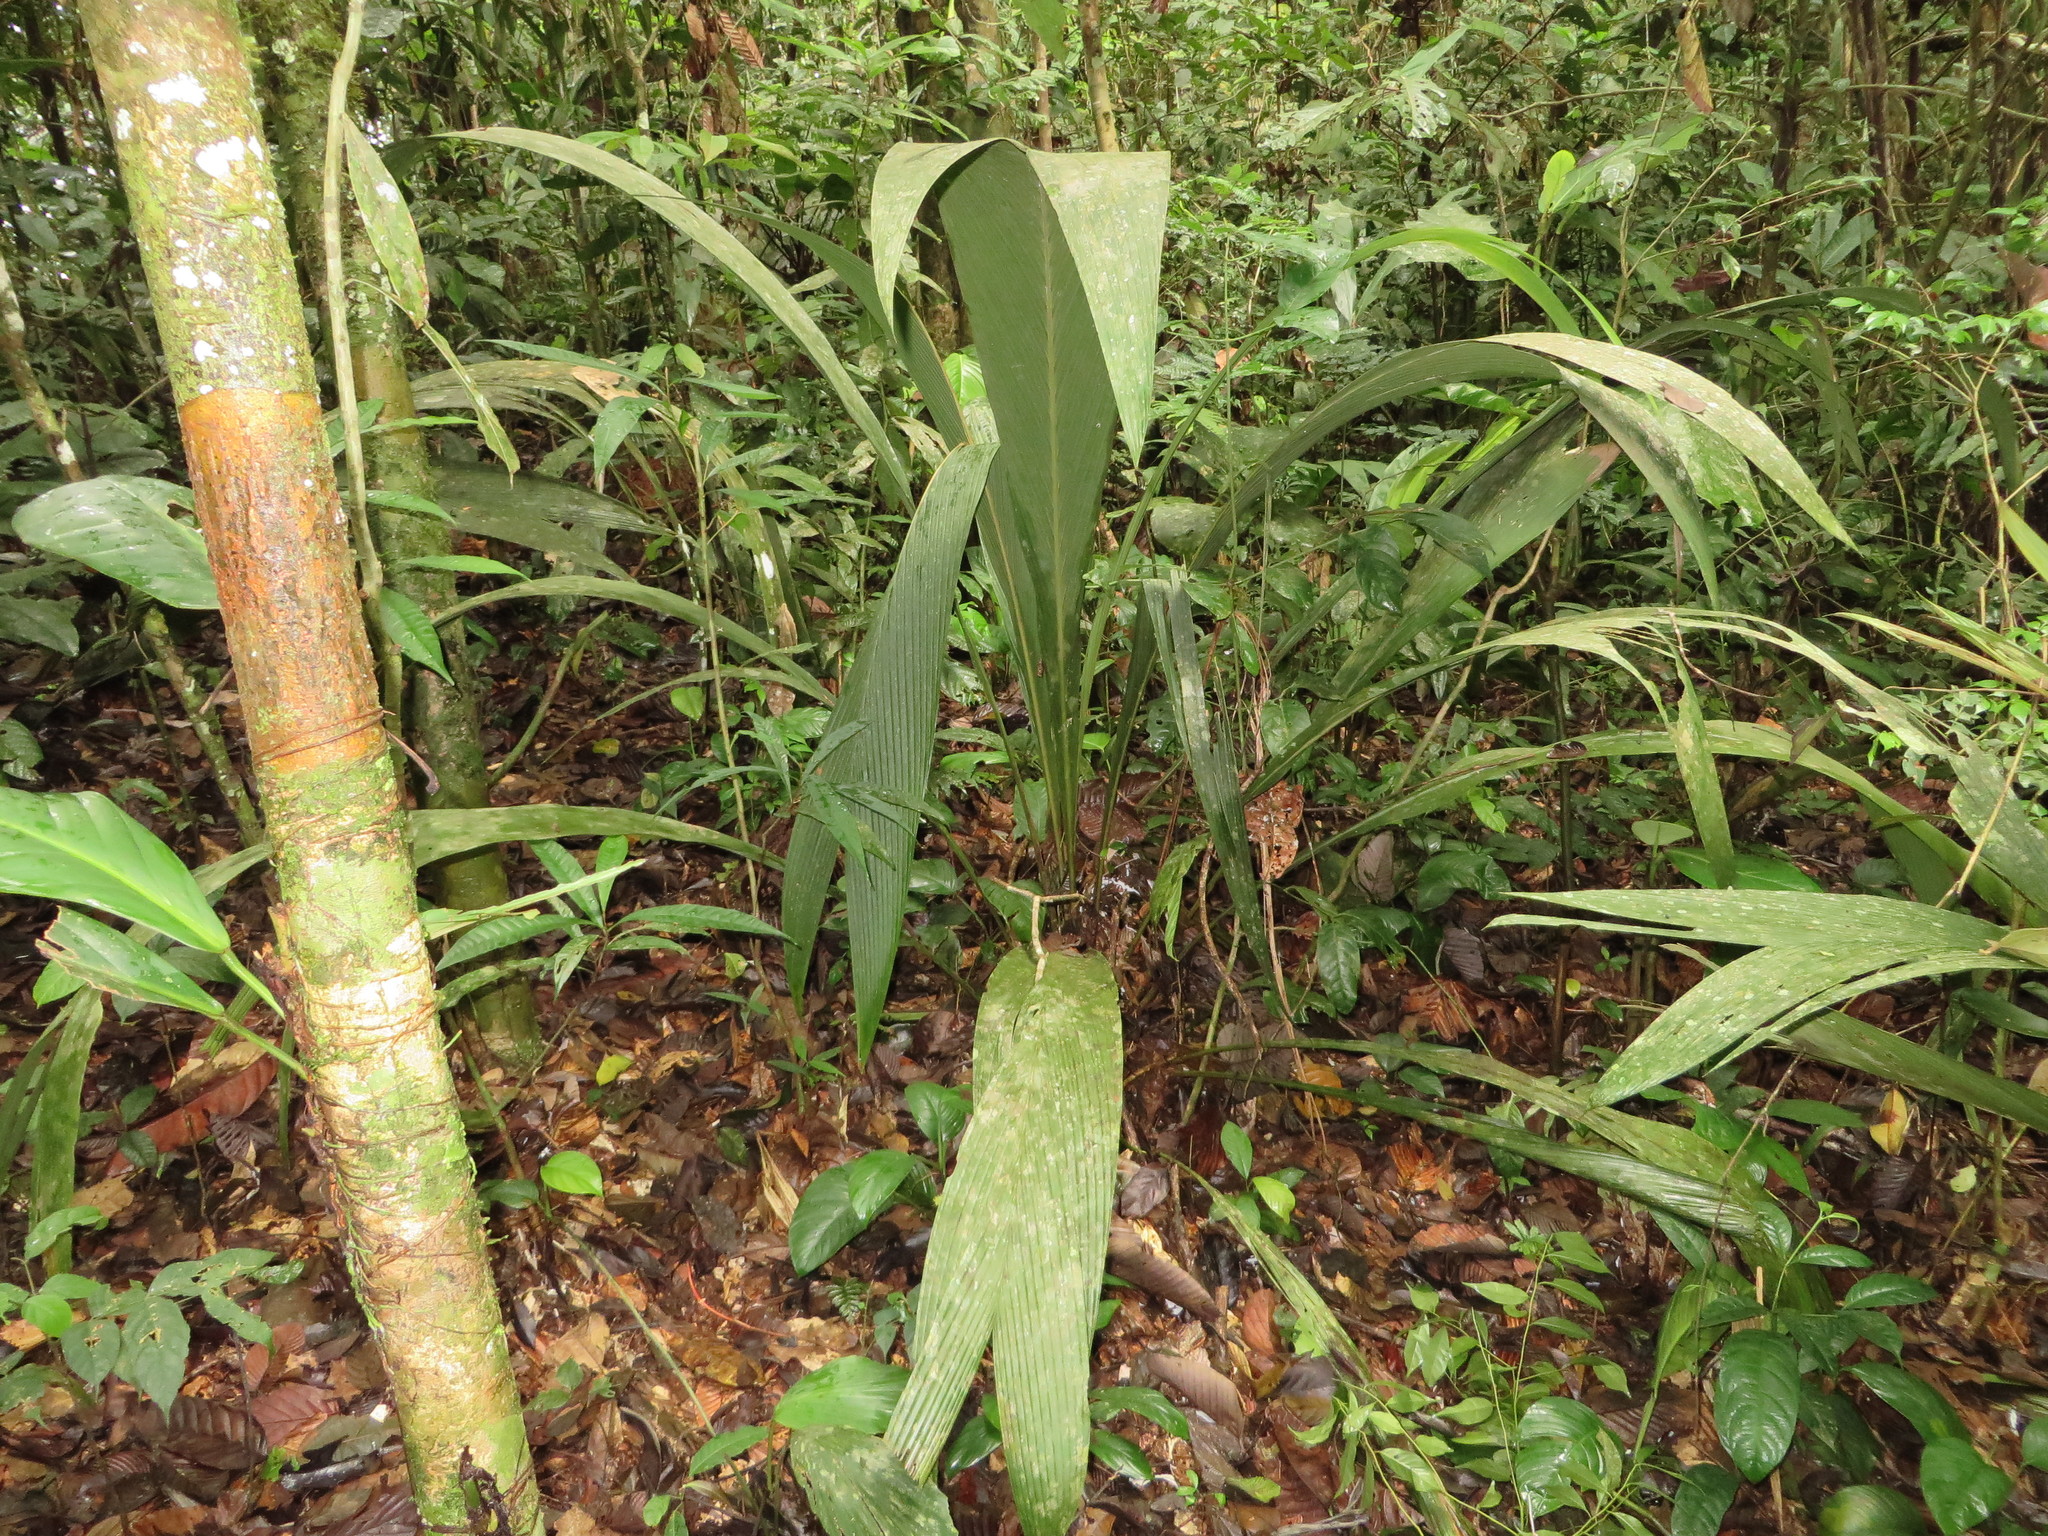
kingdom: Plantae
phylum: Tracheophyta
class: Liliopsida
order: Arecales
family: Arecaceae
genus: Geonoma
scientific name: Geonoma macrostachys
